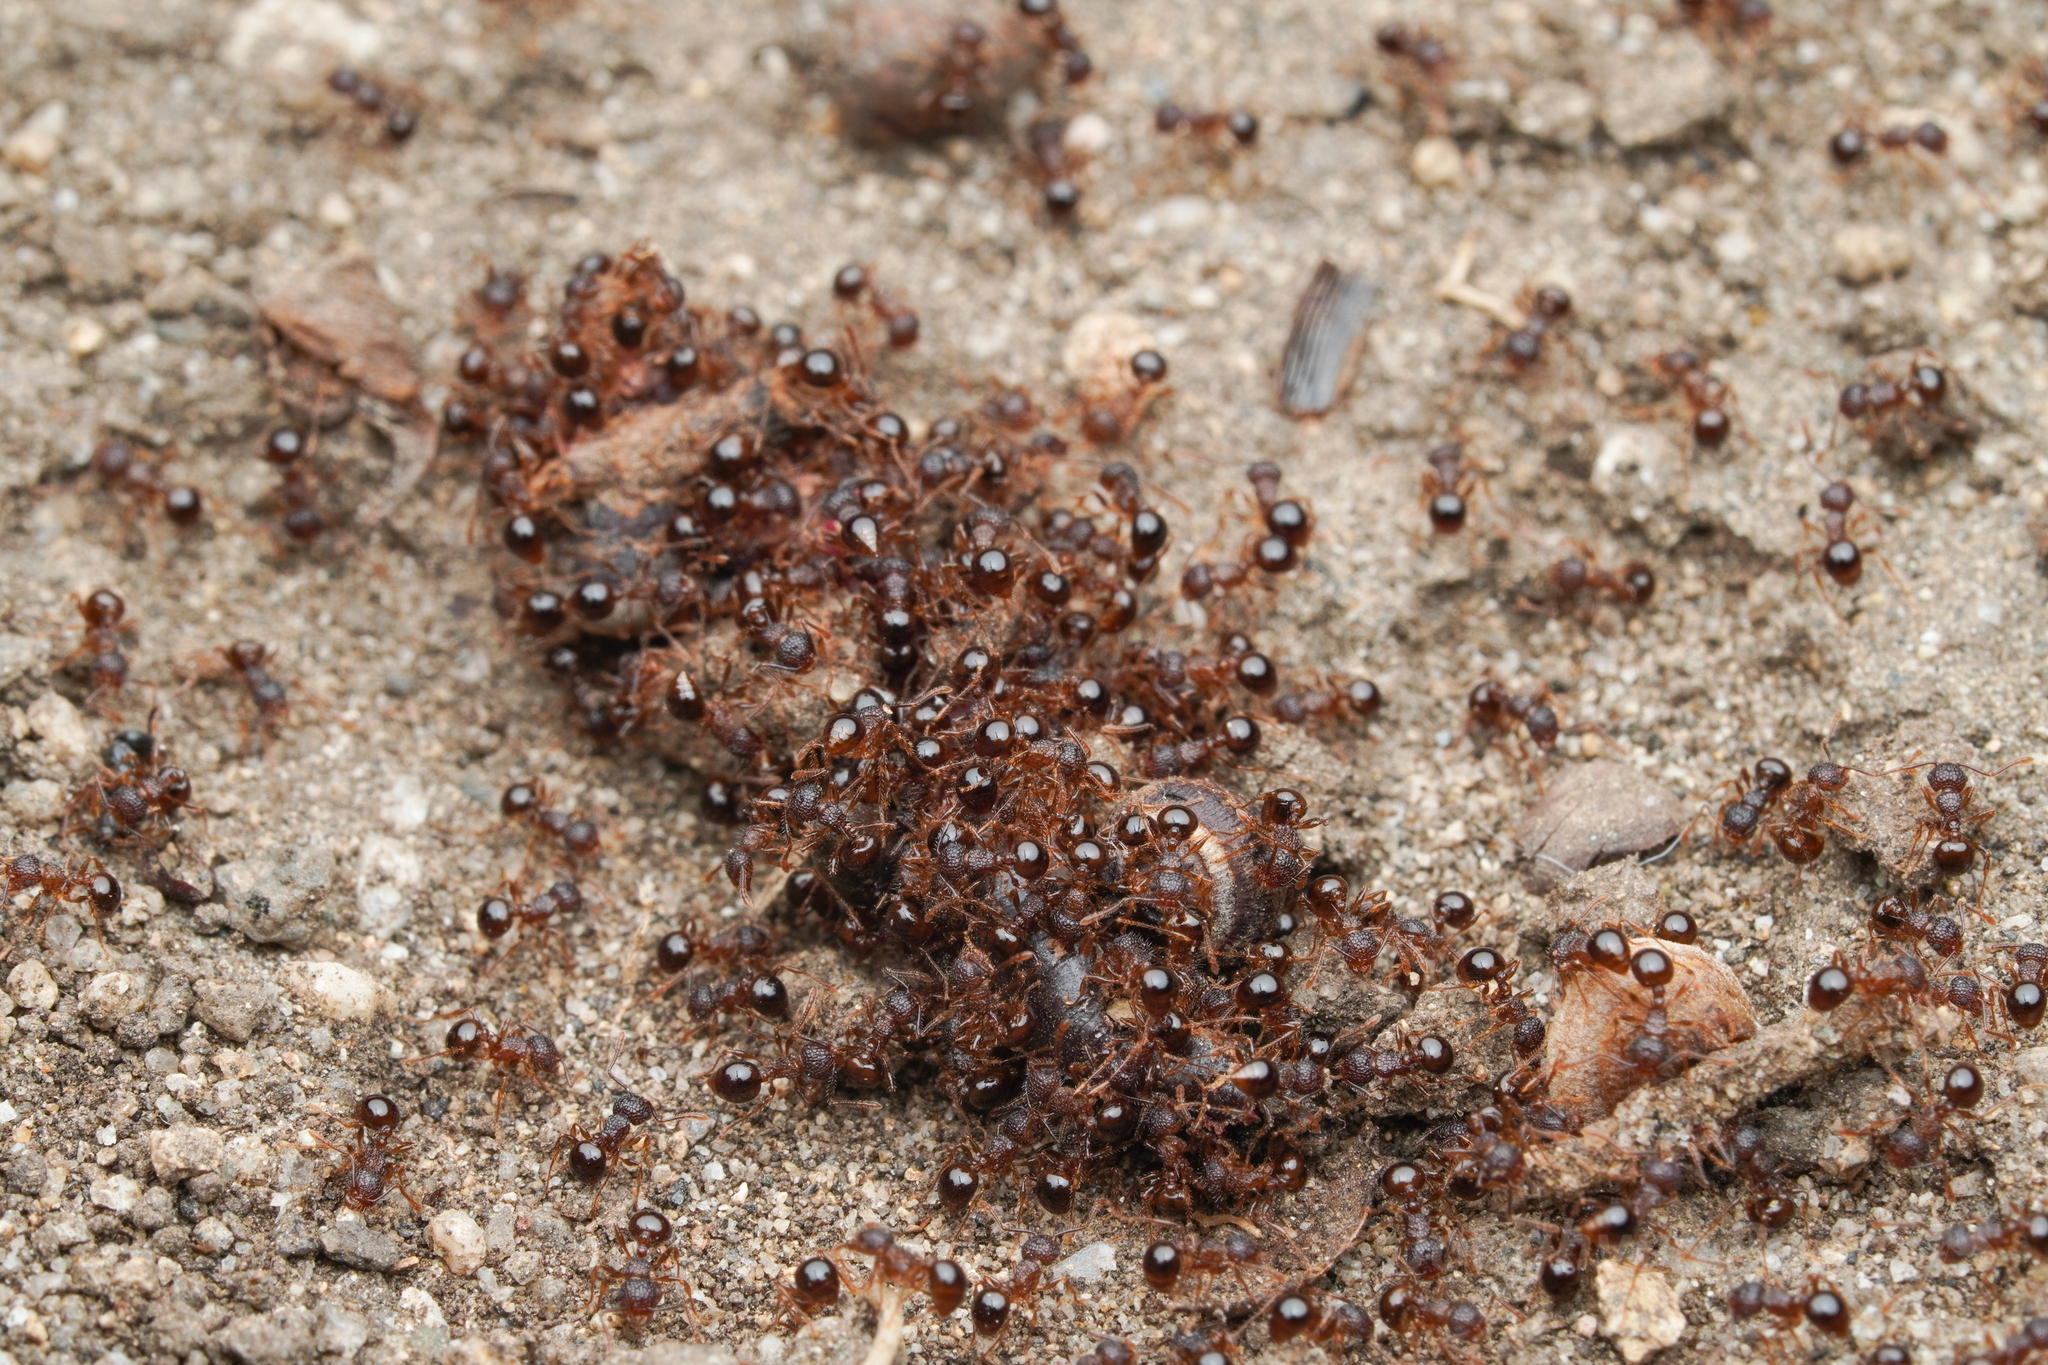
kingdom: Animalia
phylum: Arthropoda
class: Insecta
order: Hymenoptera
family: Formicidae
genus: Pristomyrmex
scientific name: Pristomyrmex punctatus
